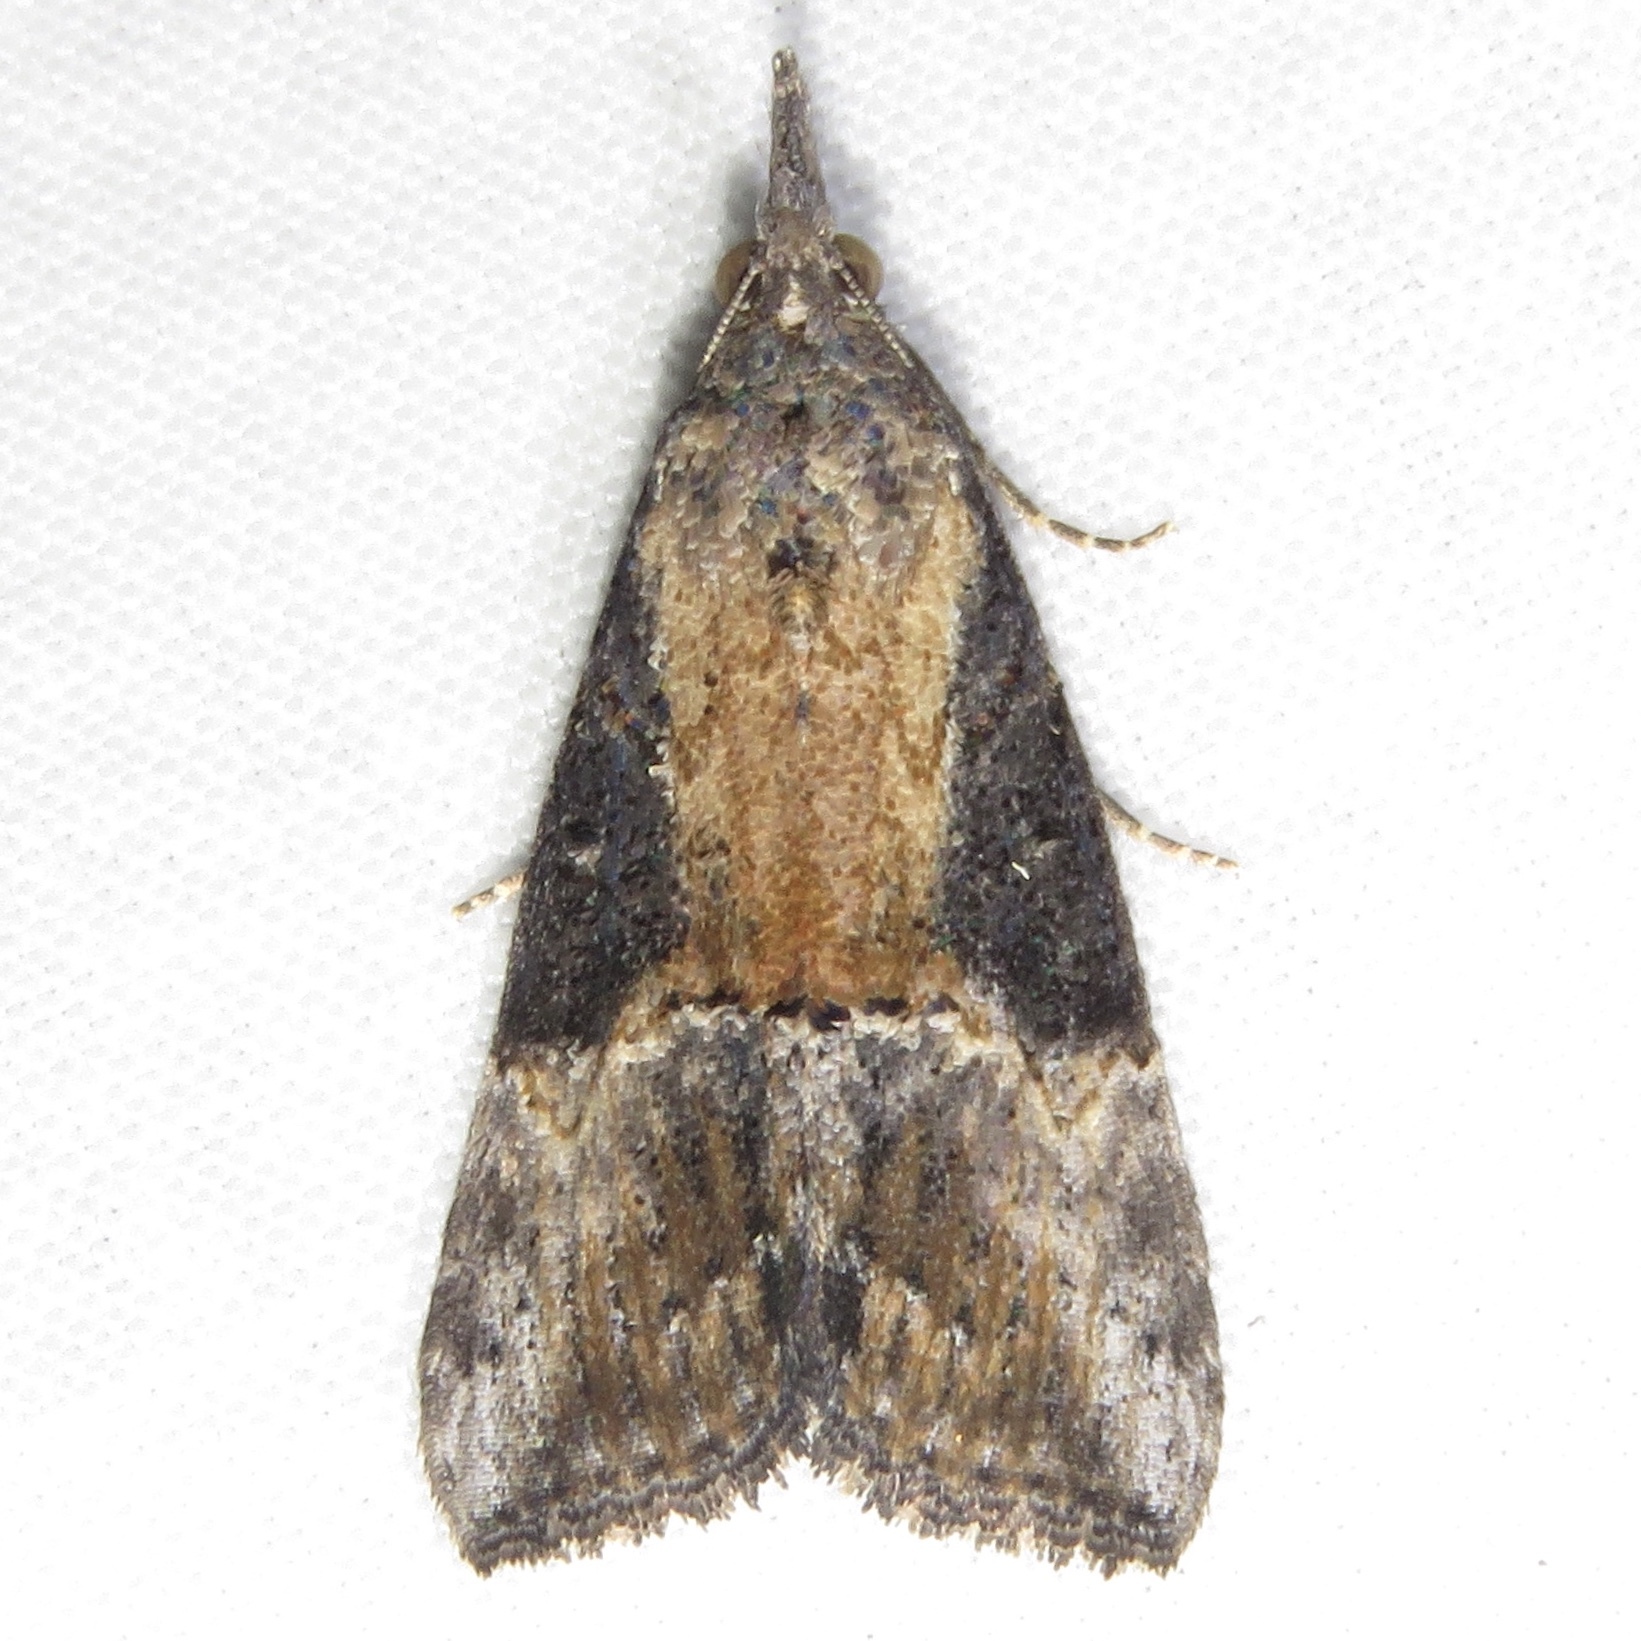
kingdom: Animalia
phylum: Arthropoda
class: Insecta
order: Lepidoptera
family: Erebidae
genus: Hypena
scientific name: Hypena scabra
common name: Green cloverworm
